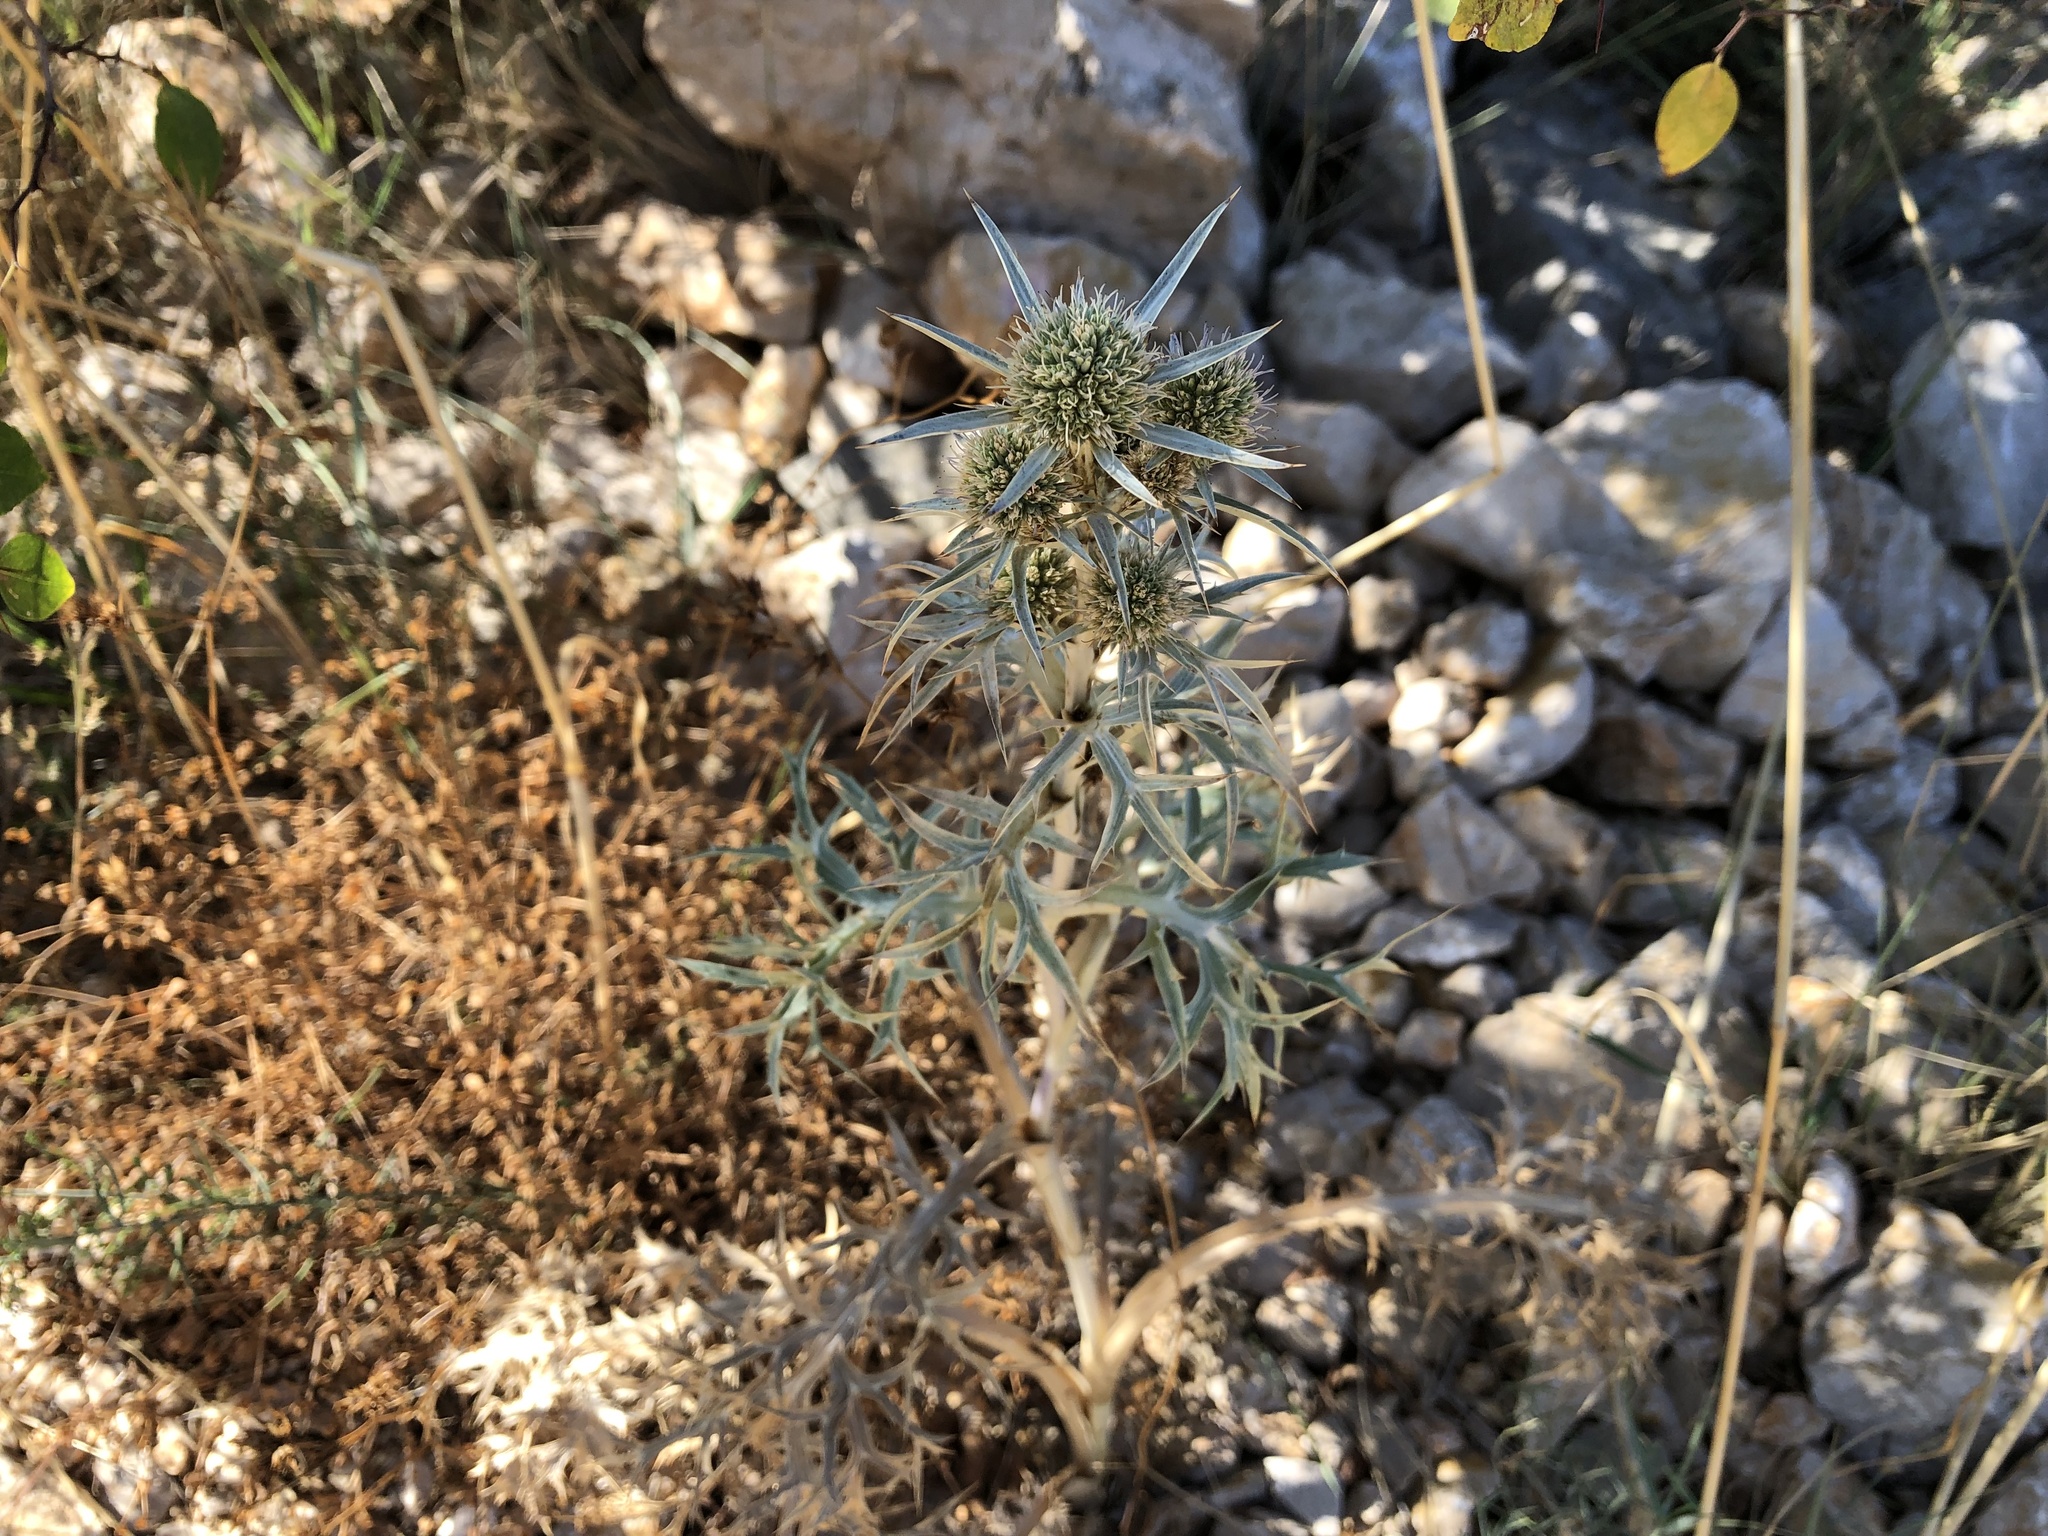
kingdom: Plantae
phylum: Tracheophyta
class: Magnoliopsida
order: Apiales
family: Apiaceae
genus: Eryngium
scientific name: Eryngium amethystinum
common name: Amethyst eryngo
